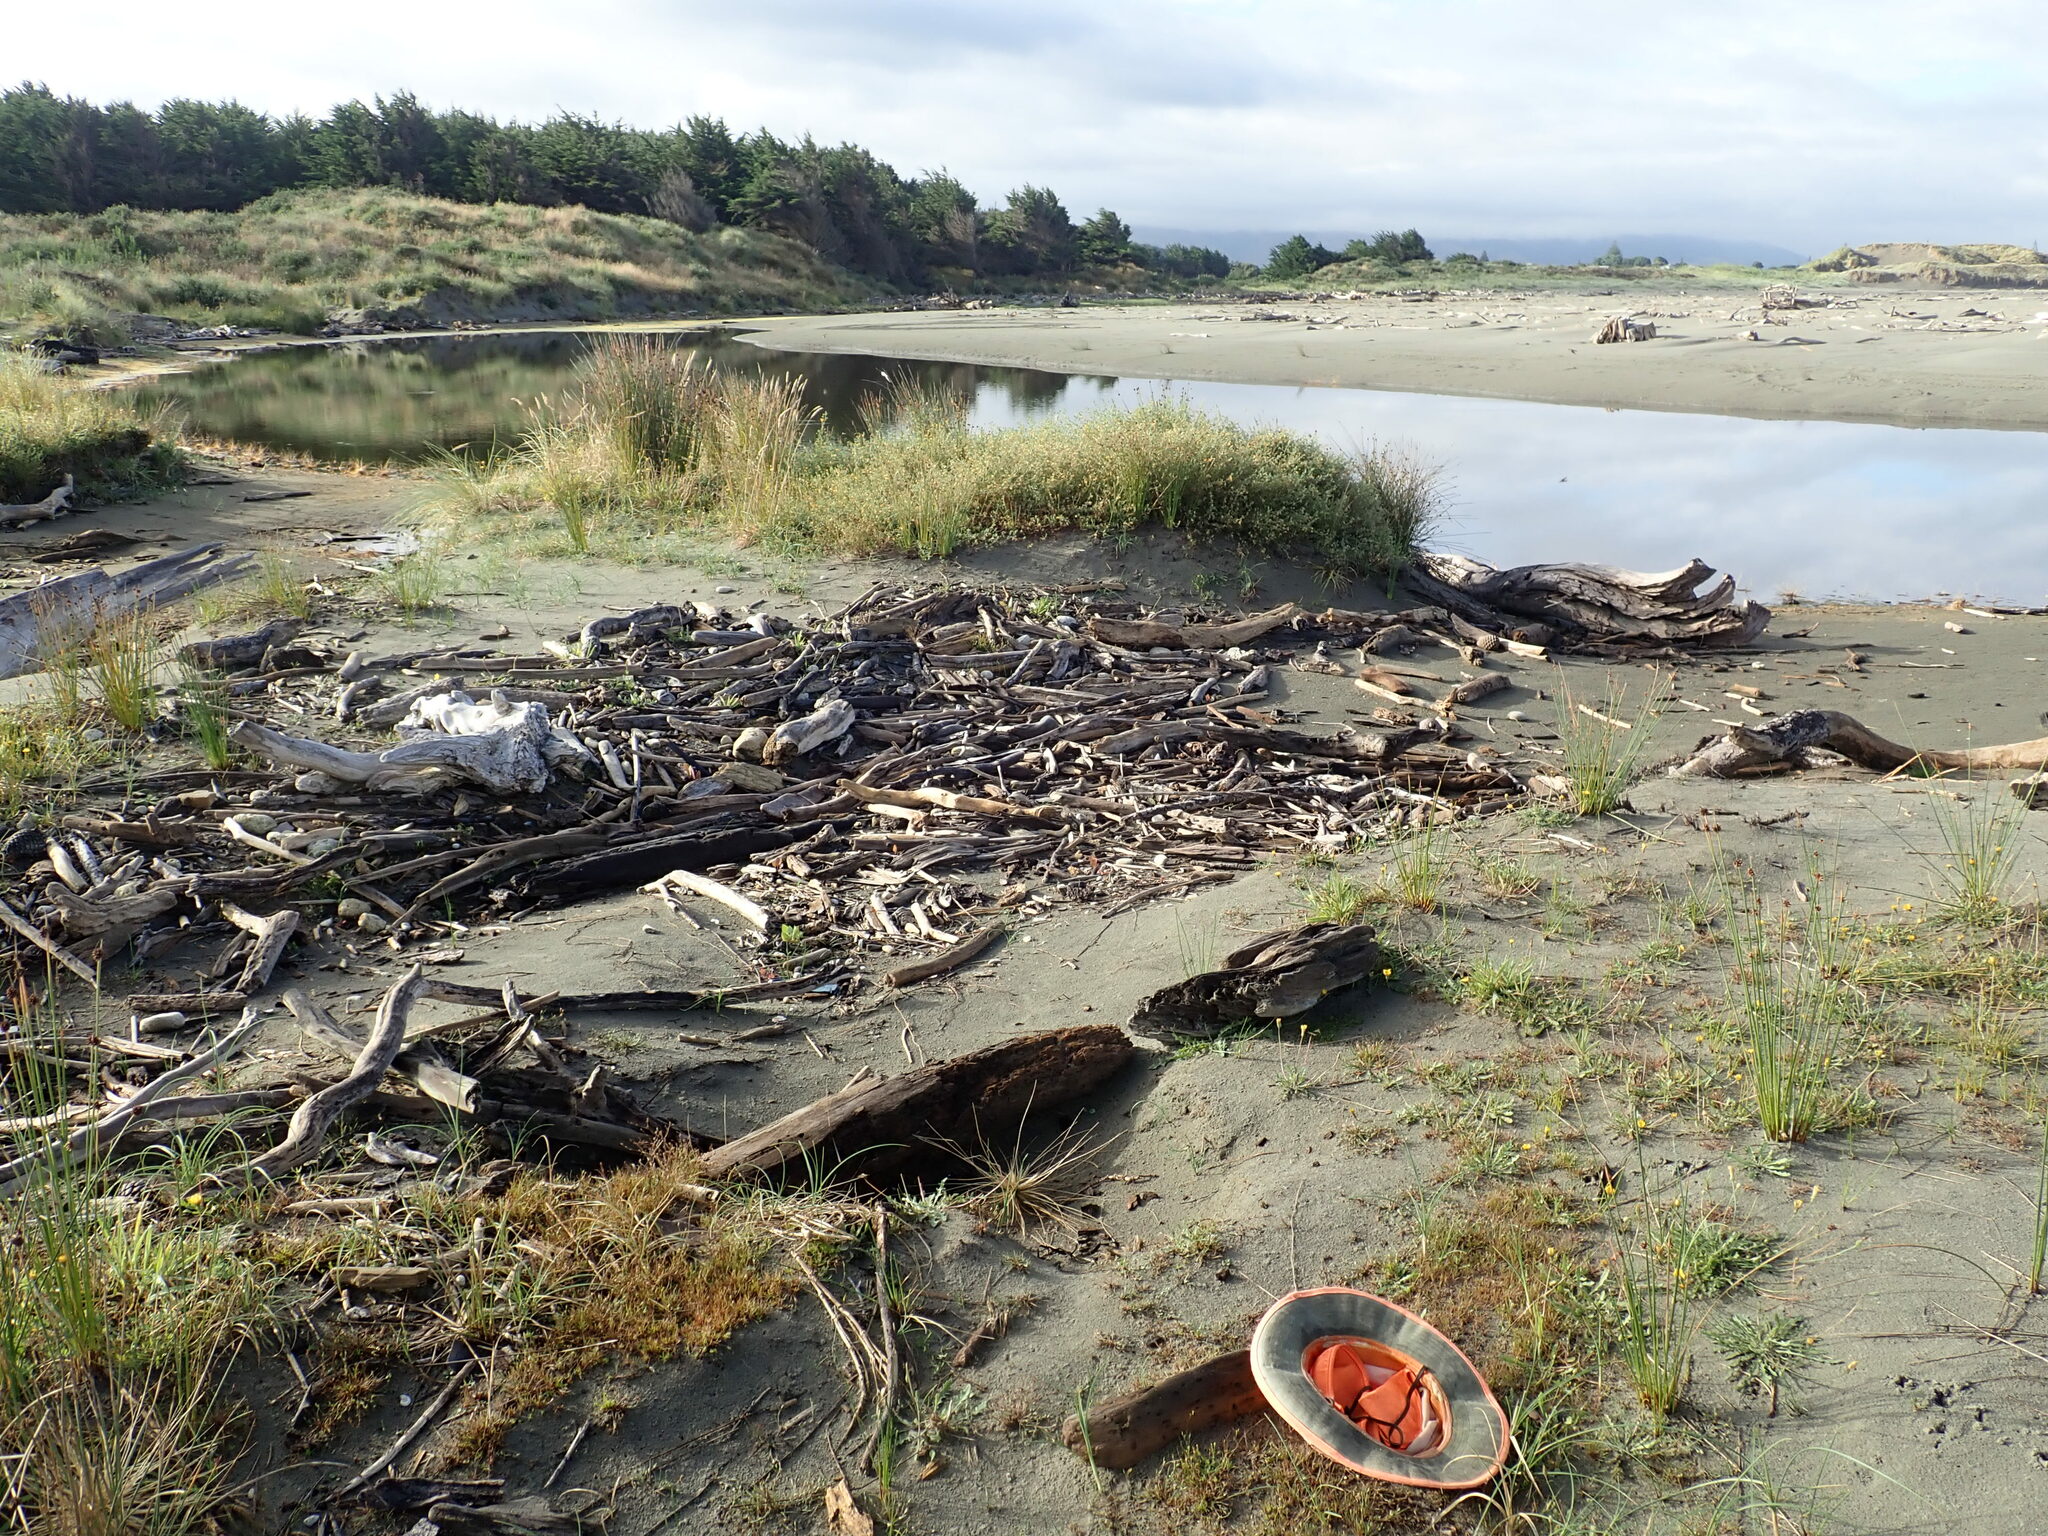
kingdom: Plantae
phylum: Tracheophyta
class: Magnoliopsida
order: Caryophyllales
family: Caryophyllaceae
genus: Sagina
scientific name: Sagina procumbens
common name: Procumbent pearlwort
